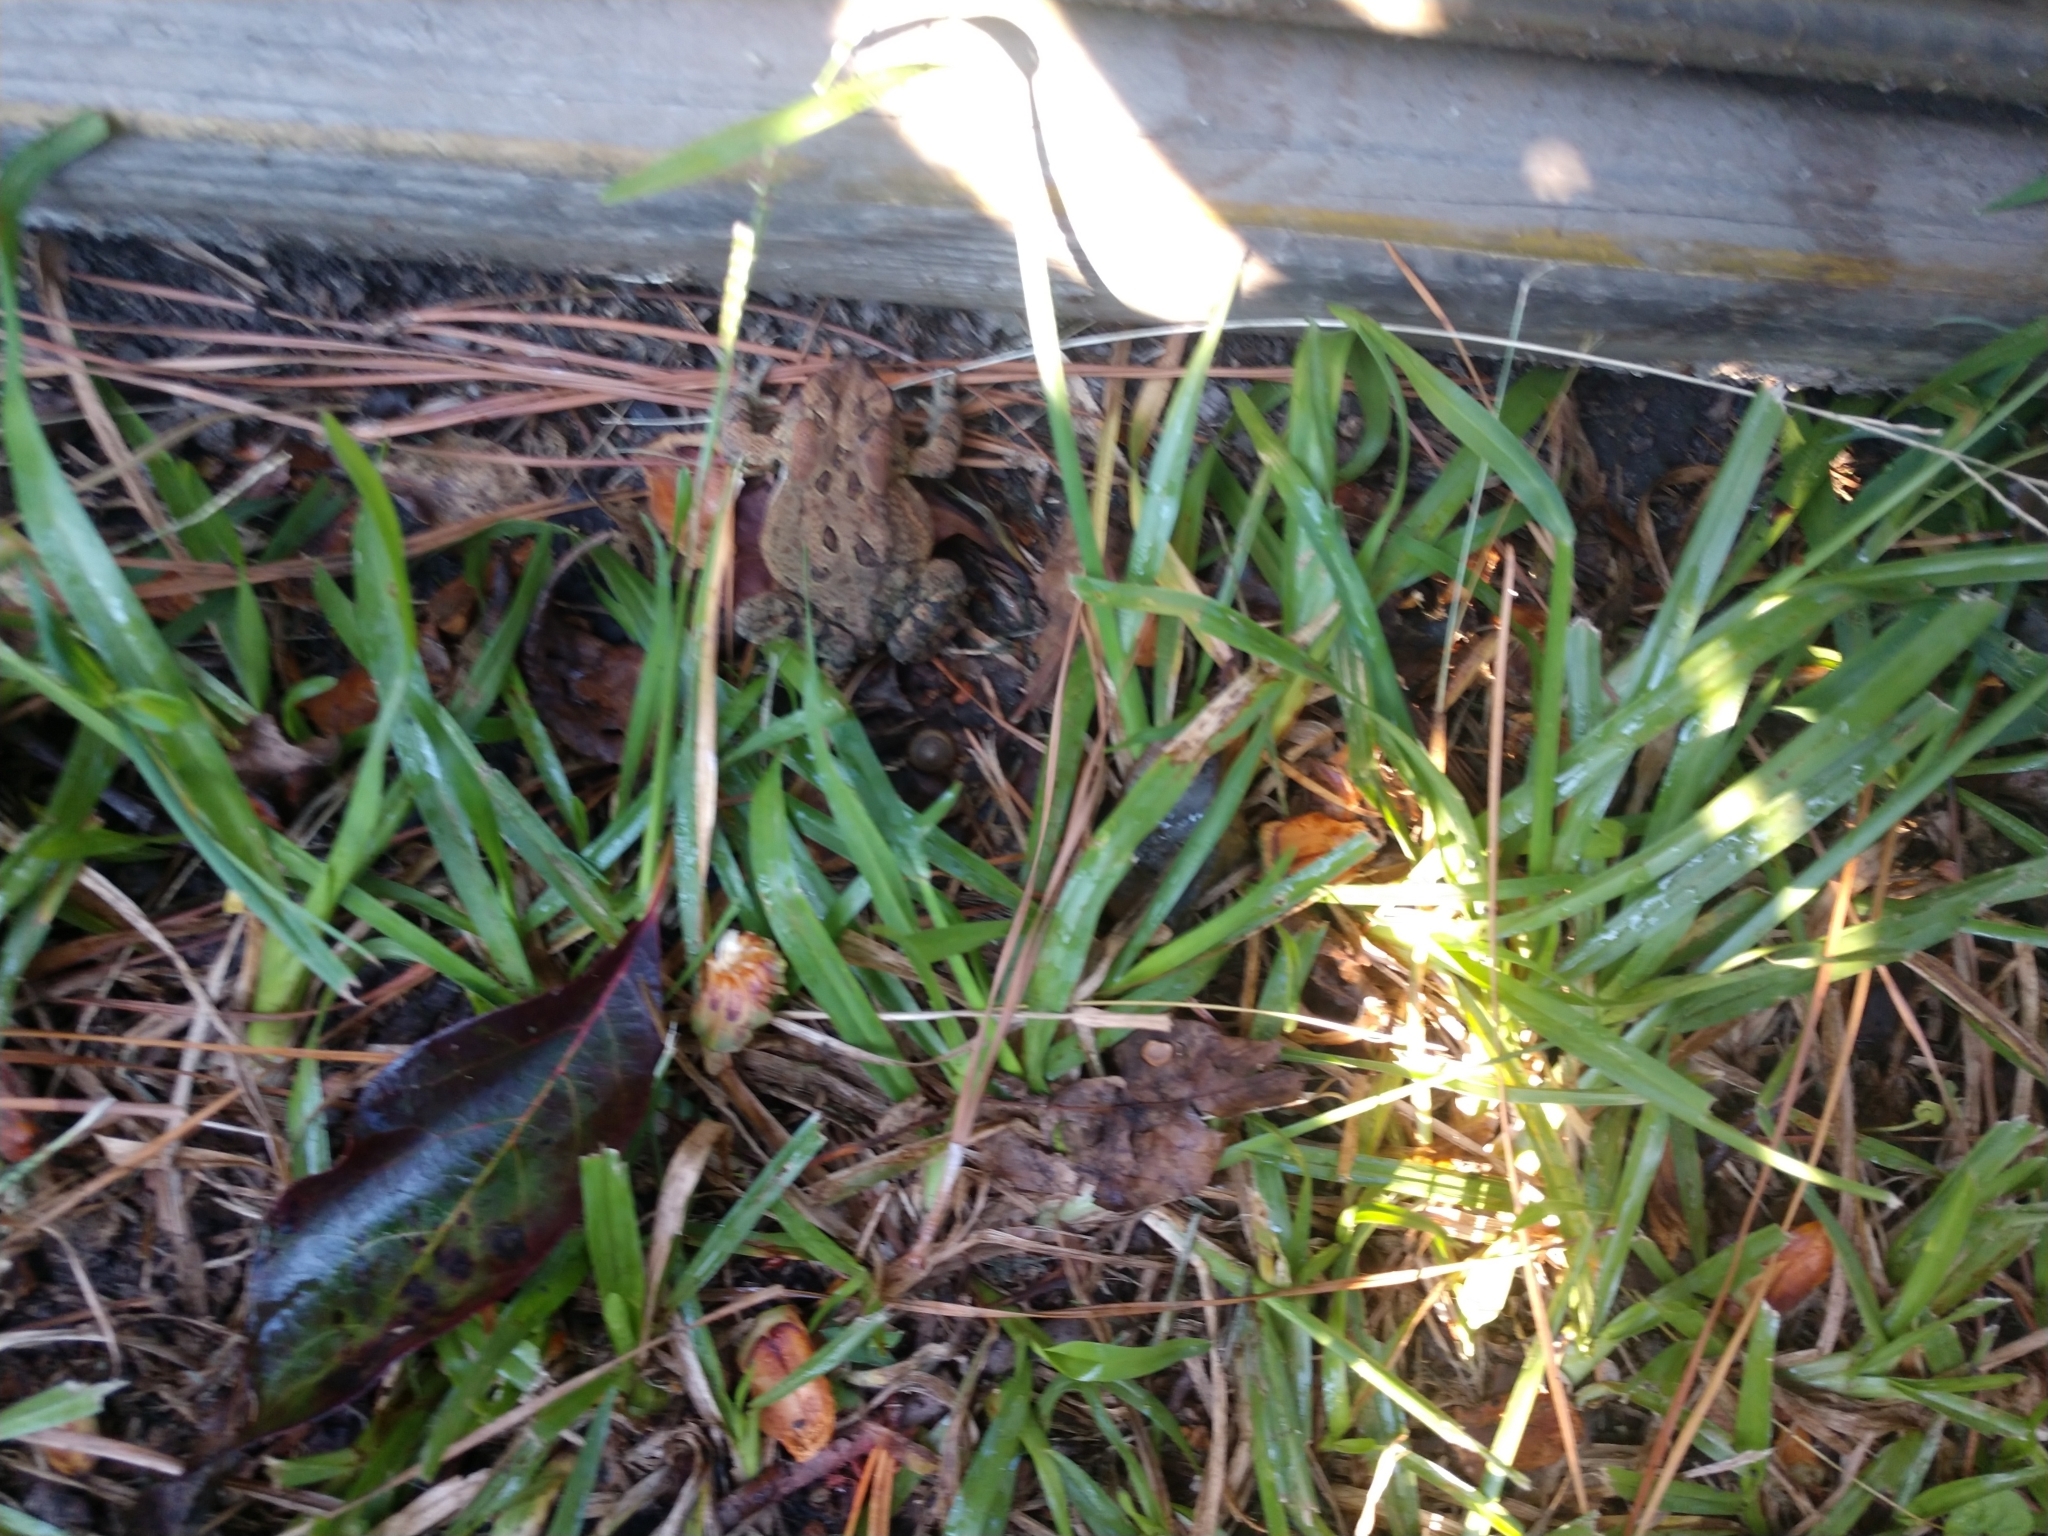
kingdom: Animalia
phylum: Chordata
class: Amphibia
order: Anura
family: Bufonidae
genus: Anaxyrus
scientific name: Anaxyrus terrestris
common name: Southern toad
